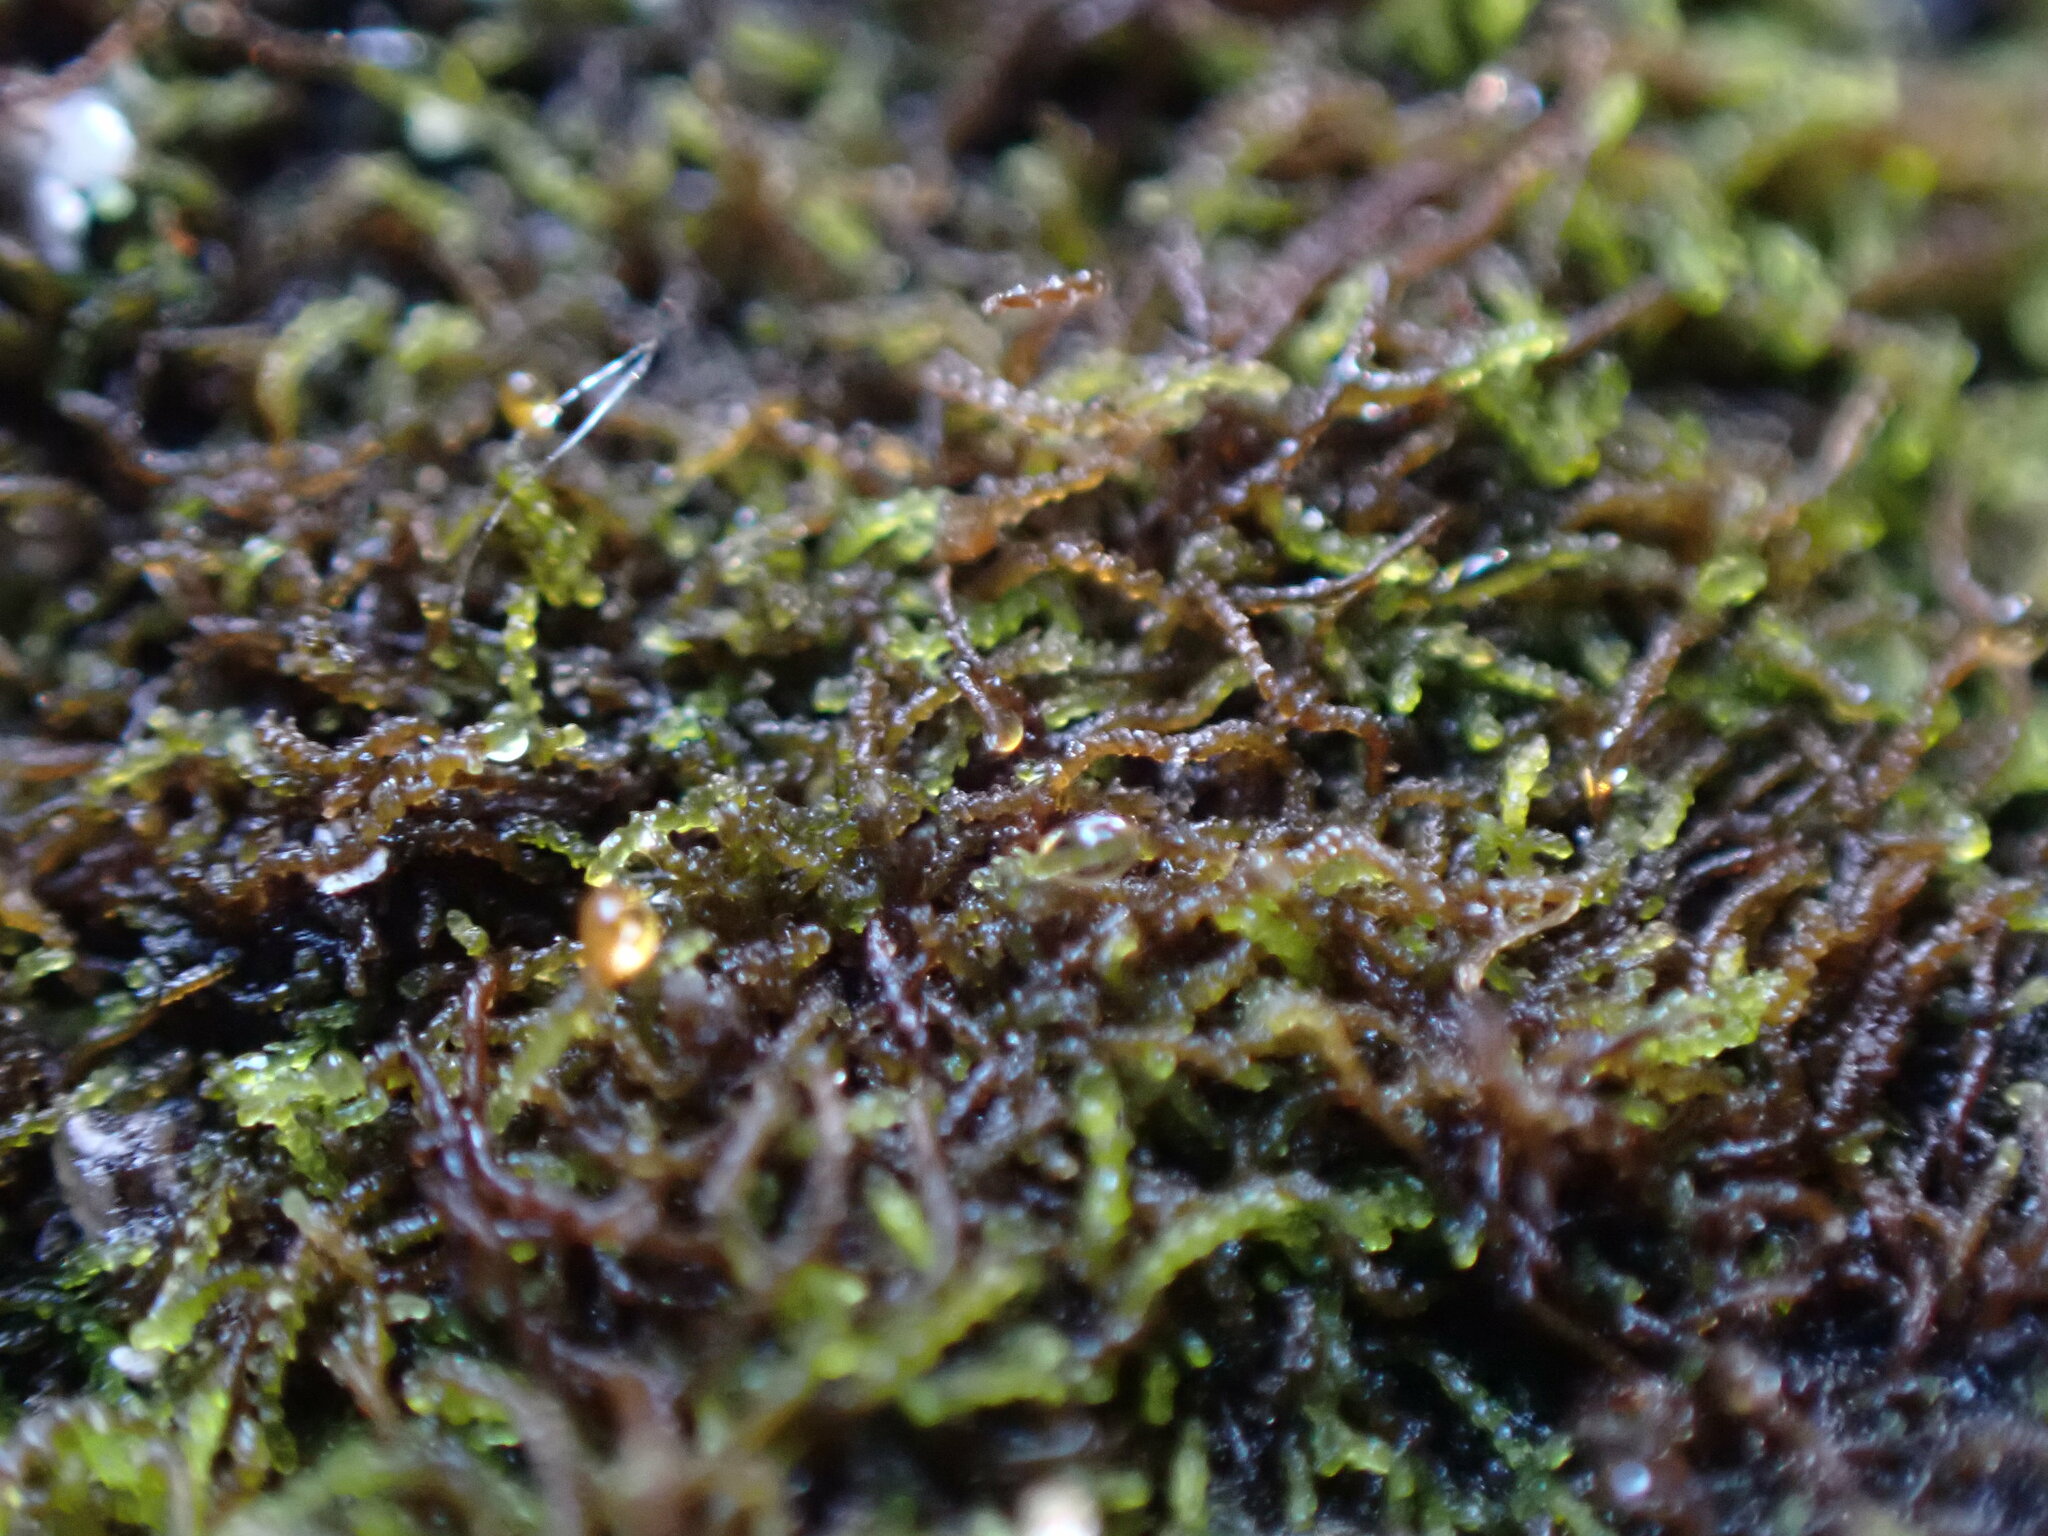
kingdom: Plantae
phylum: Marchantiophyta
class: Jungermanniopsida
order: Jungermanniales
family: Cephaloziellaceae
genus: Cephaloziella
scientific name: Cephaloziella divaricata
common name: Spreading threadwort
